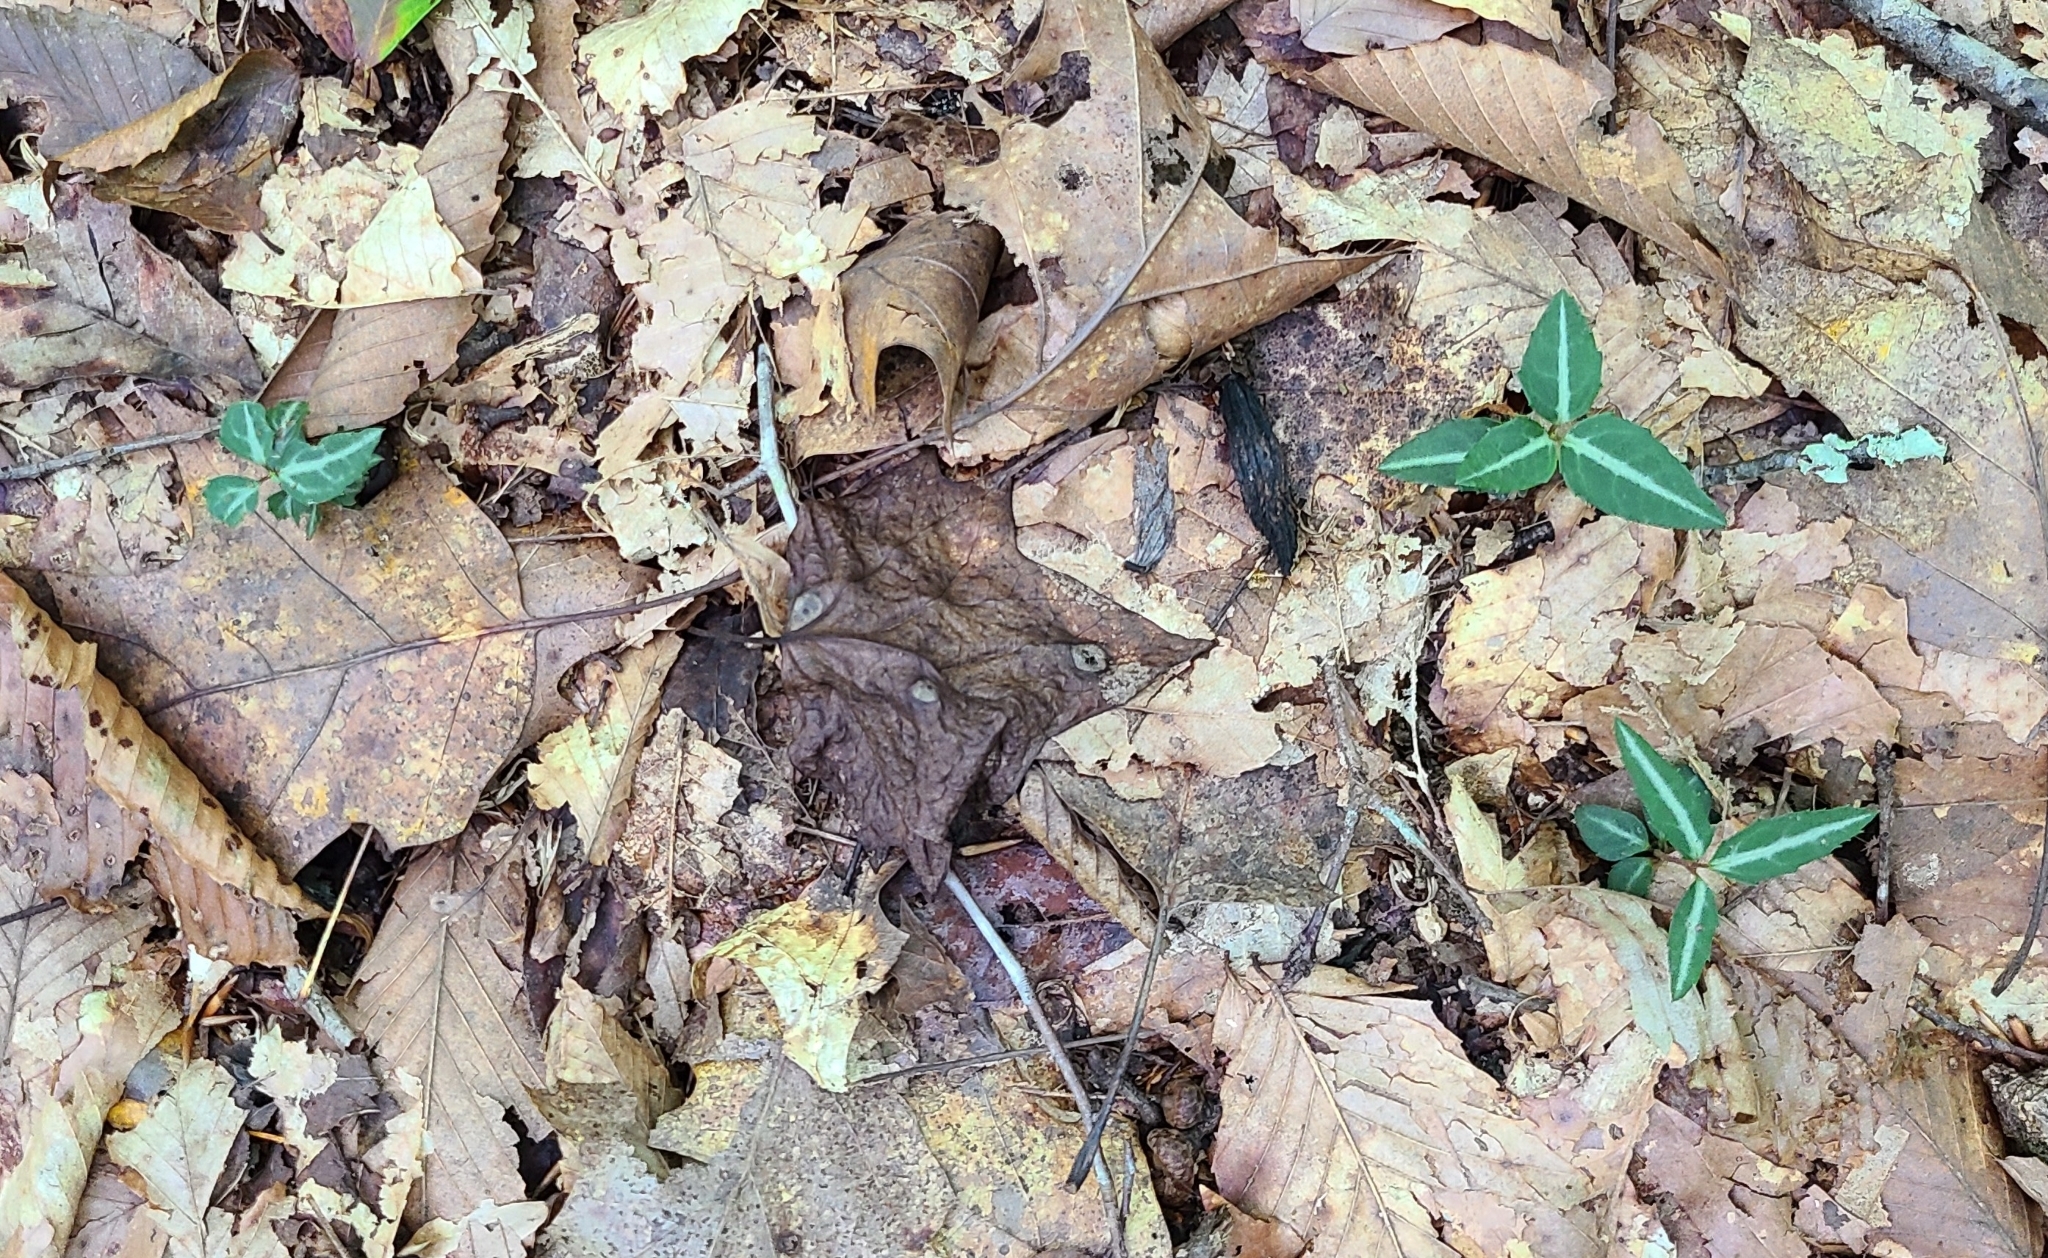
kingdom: Plantae
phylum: Tracheophyta
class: Magnoliopsida
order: Ericales
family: Ericaceae
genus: Chimaphila
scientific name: Chimaphila maculata
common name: Spotted pipsissewa
